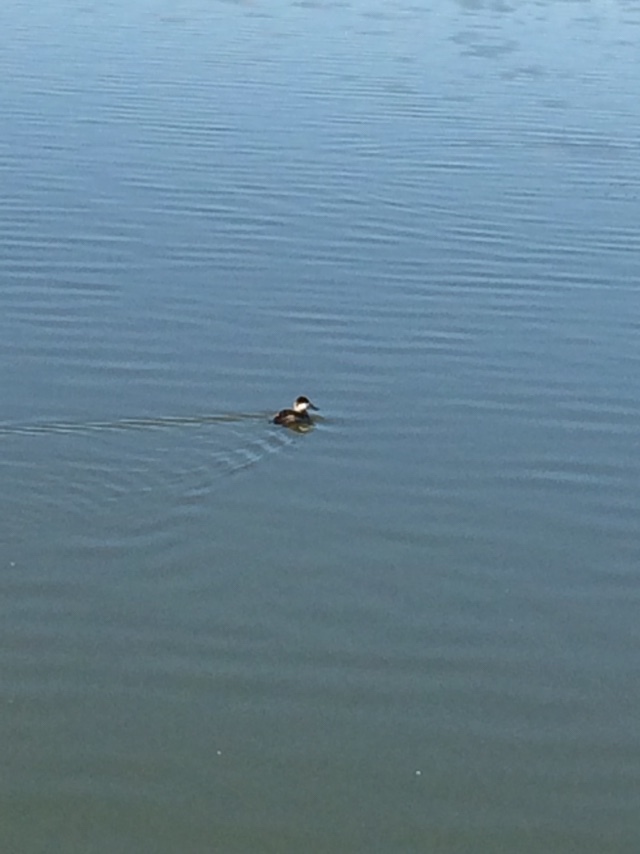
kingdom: Animalia
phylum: Chordata
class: Aves
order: Anseriformes
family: Anatidae
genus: Oxyura
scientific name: Oxyura jamaicensis
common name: Ruddy duck
